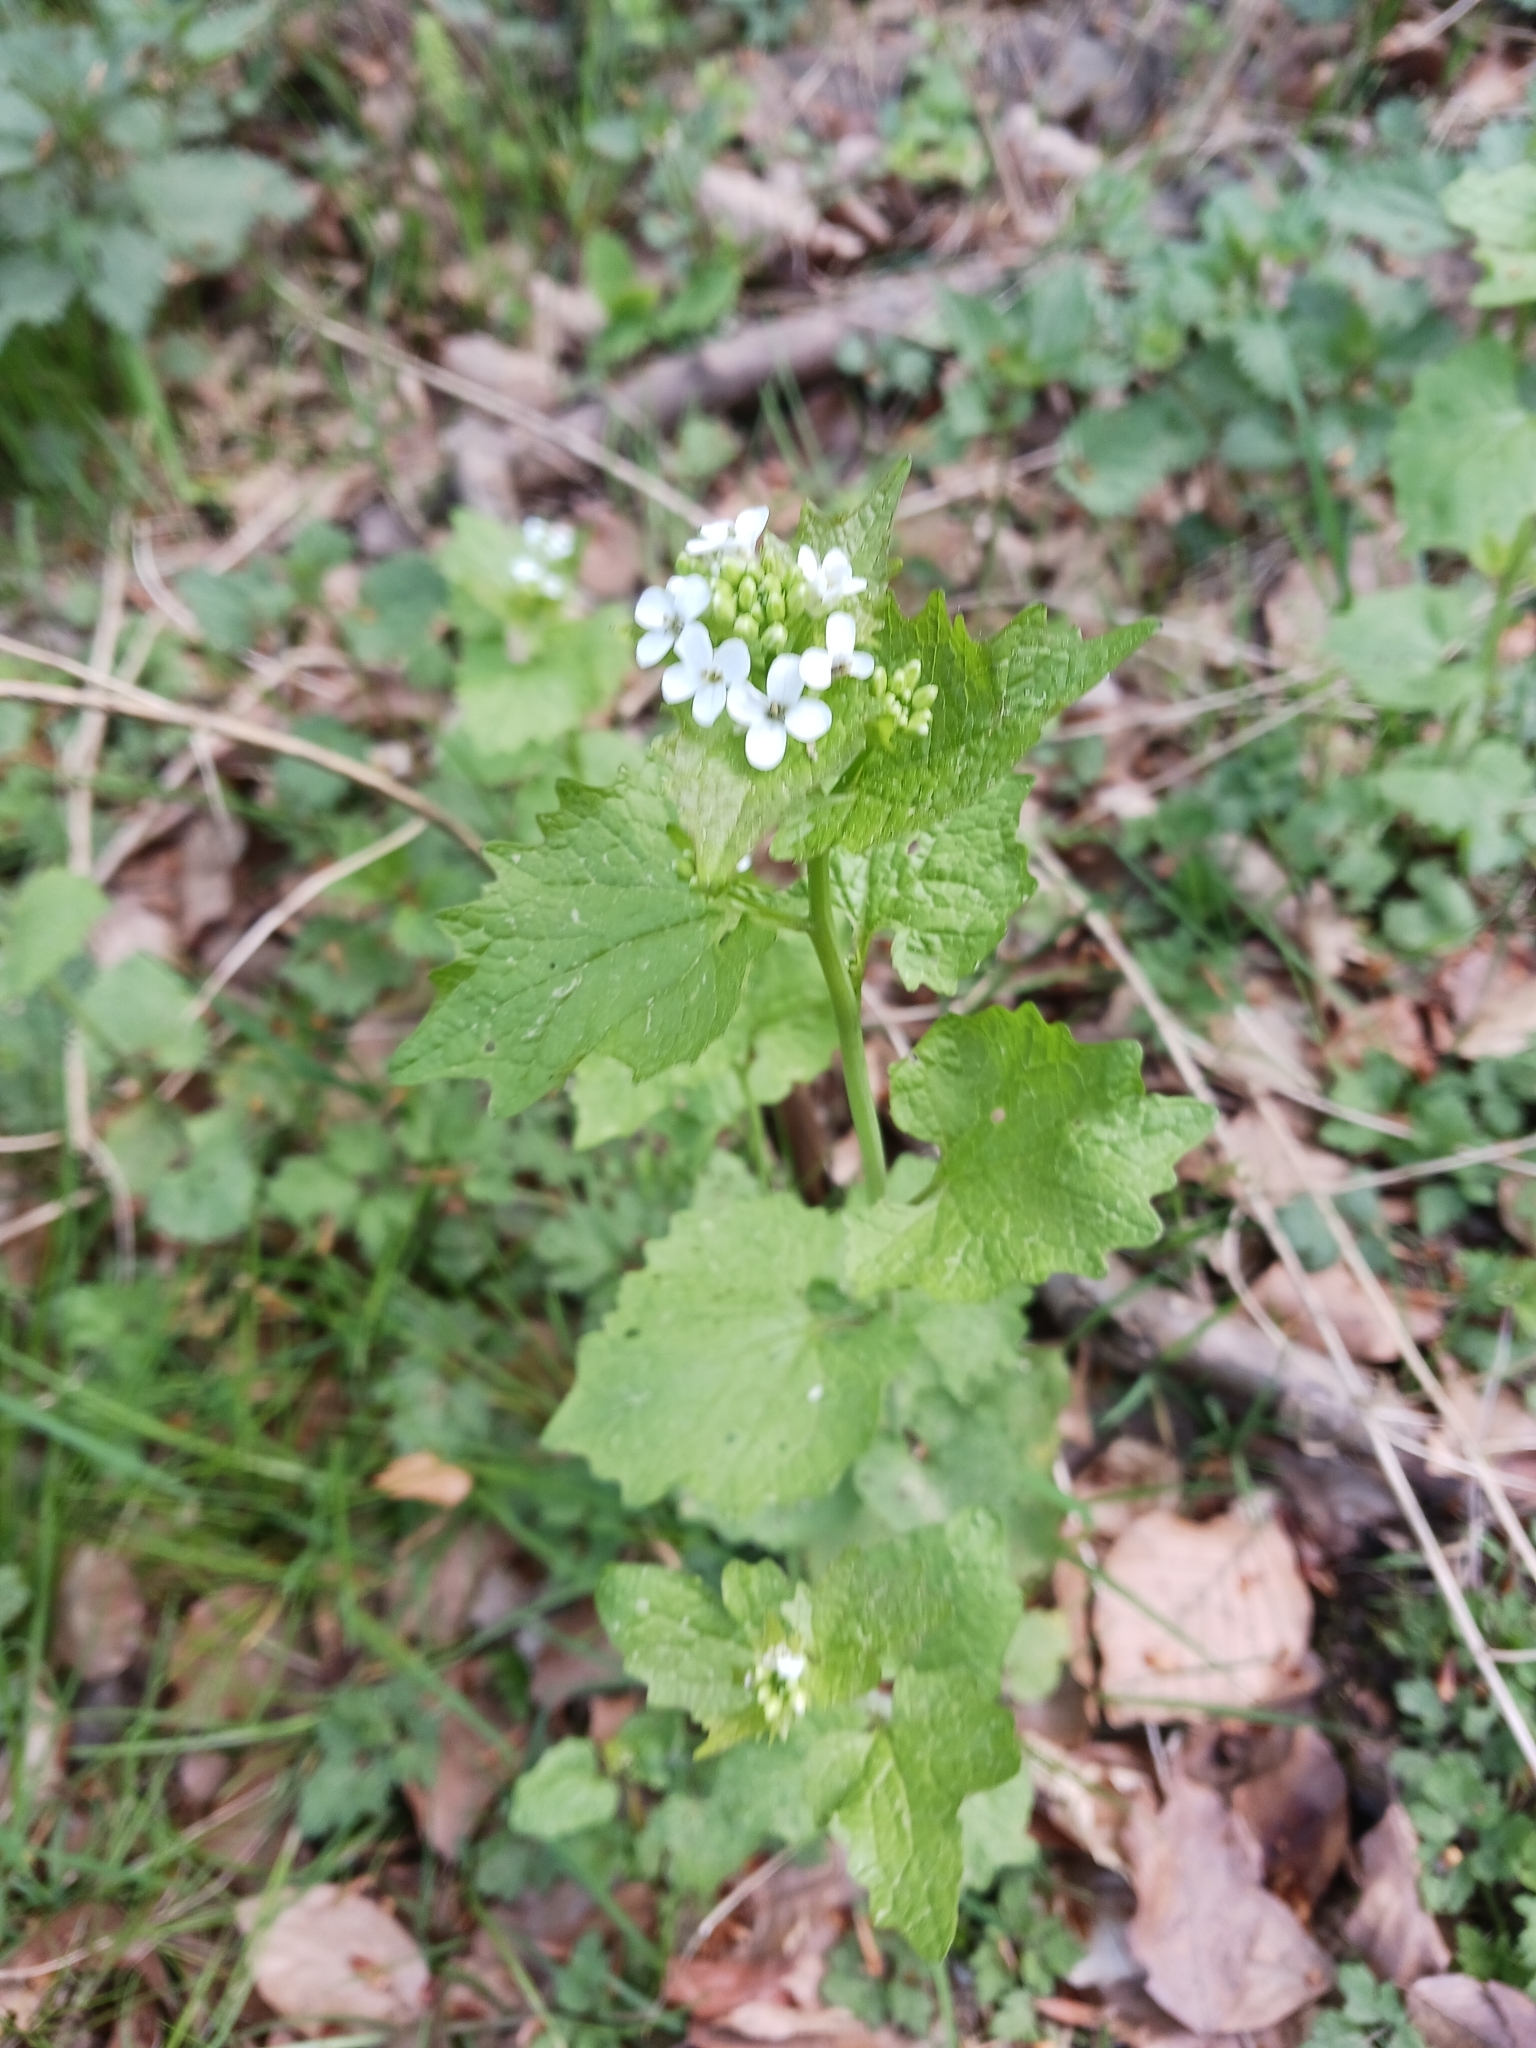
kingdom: Plantae
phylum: Tracheophyta
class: Magnoliopsida
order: Brassicales
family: Brassicaceae
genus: Alliaria
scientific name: Alliaria petiolata
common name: Garlic mustard
